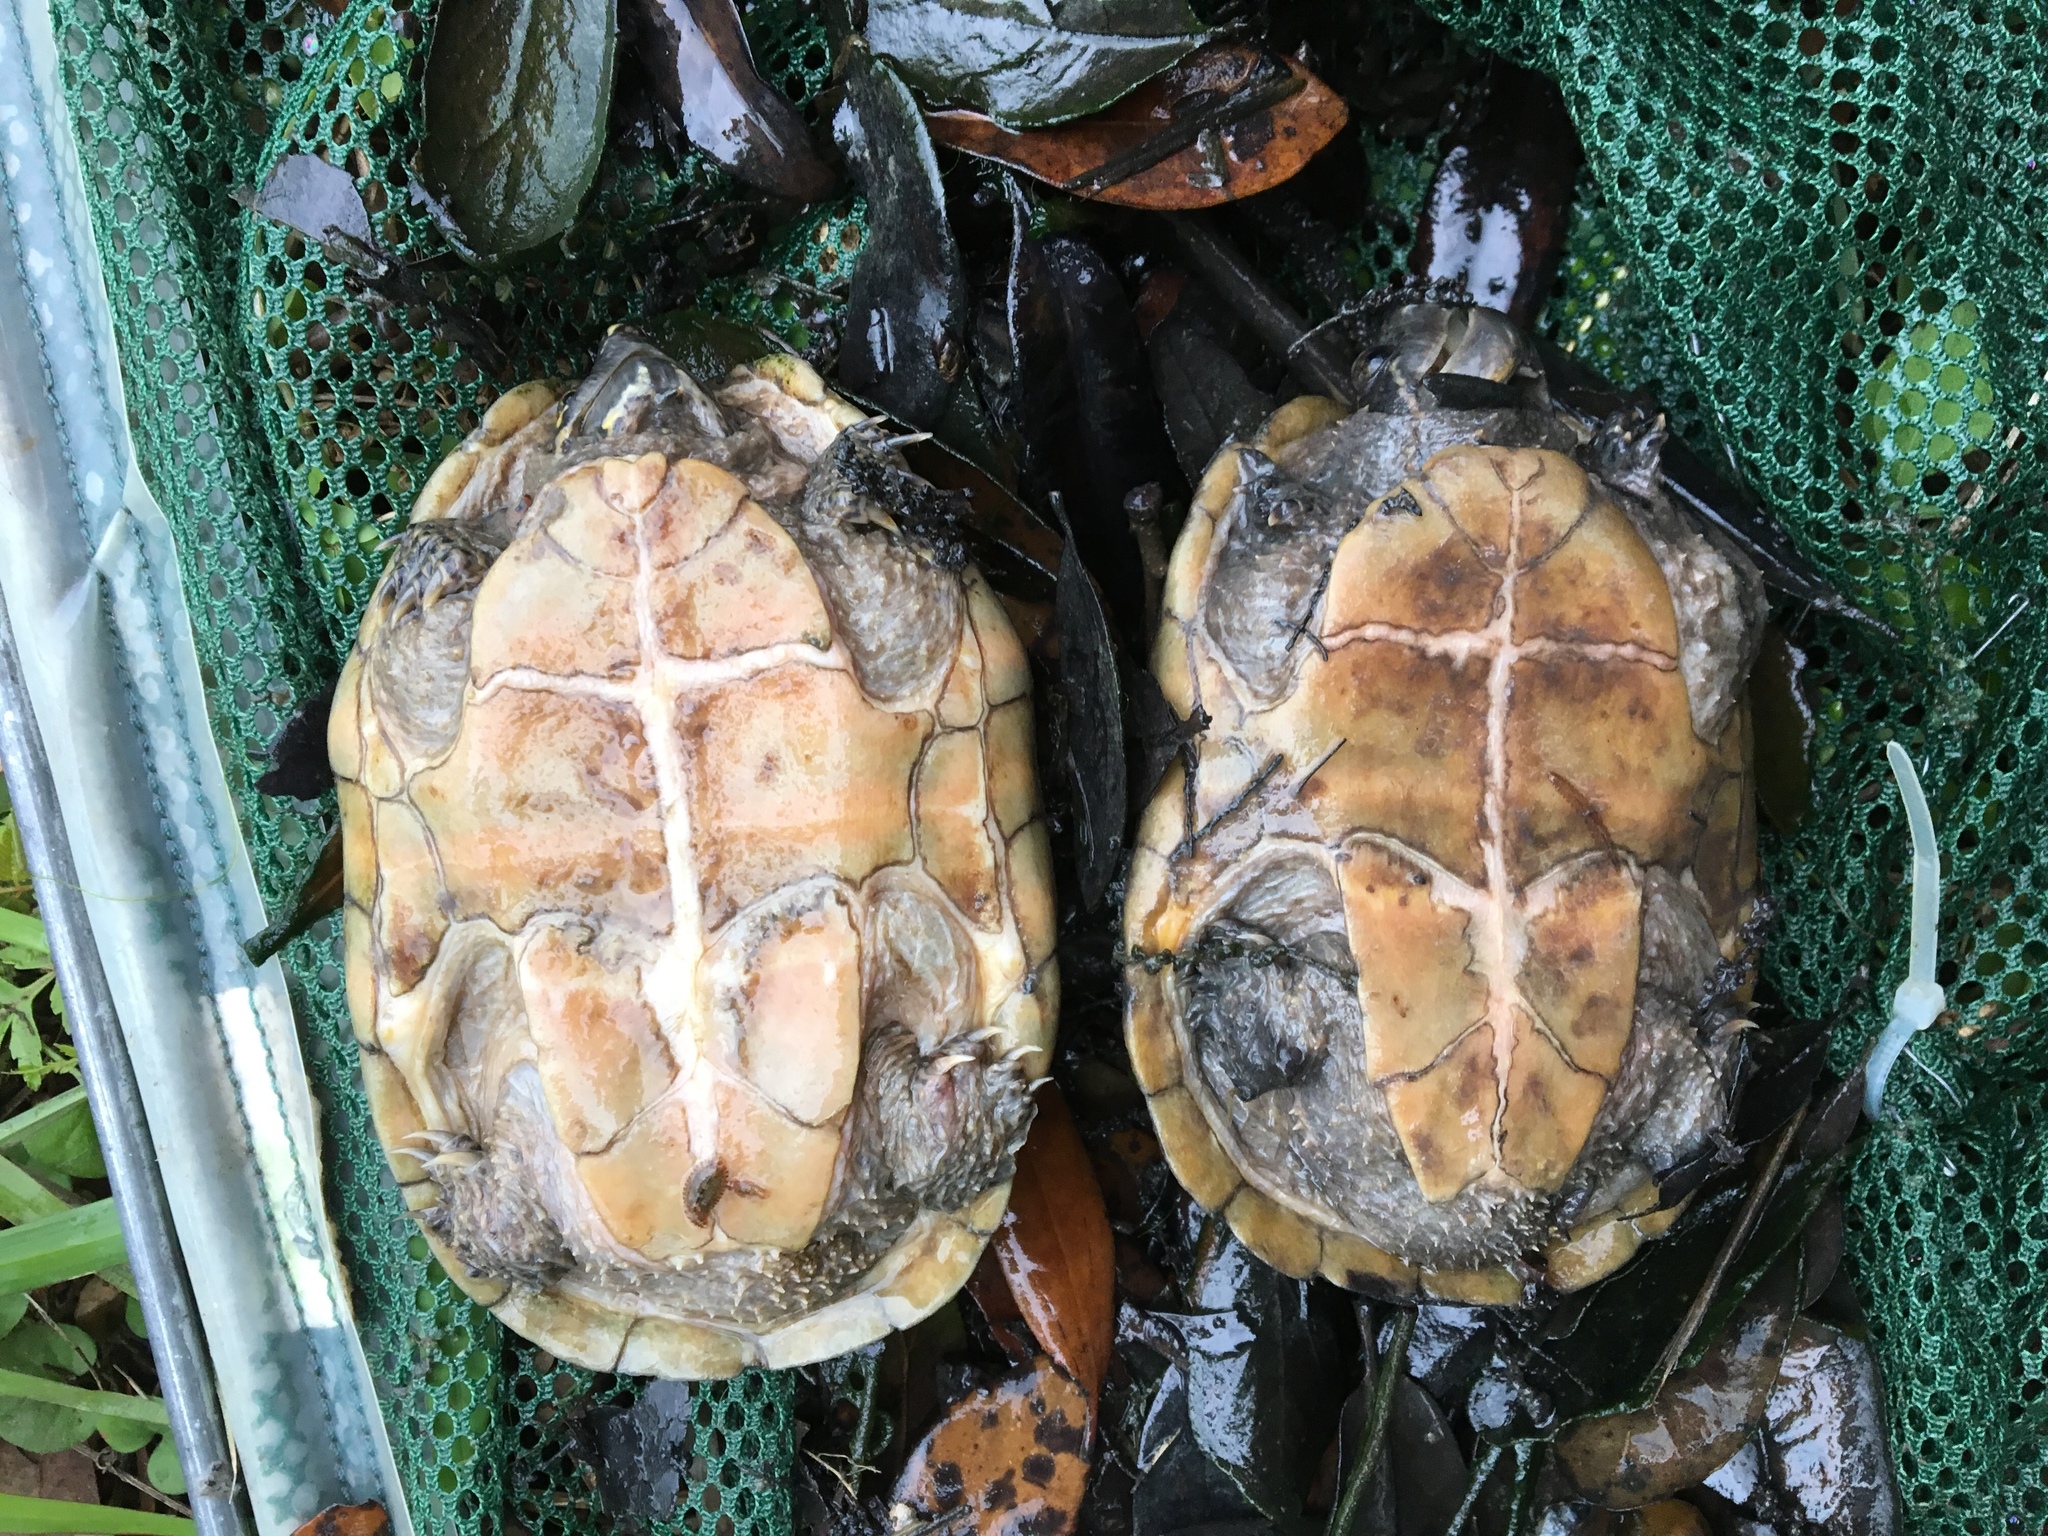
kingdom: Animalia
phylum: Chordata
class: Testudines
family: Kinosternidae
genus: Sternotherus
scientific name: Sternotherus odoratus
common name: Common musk turtle
